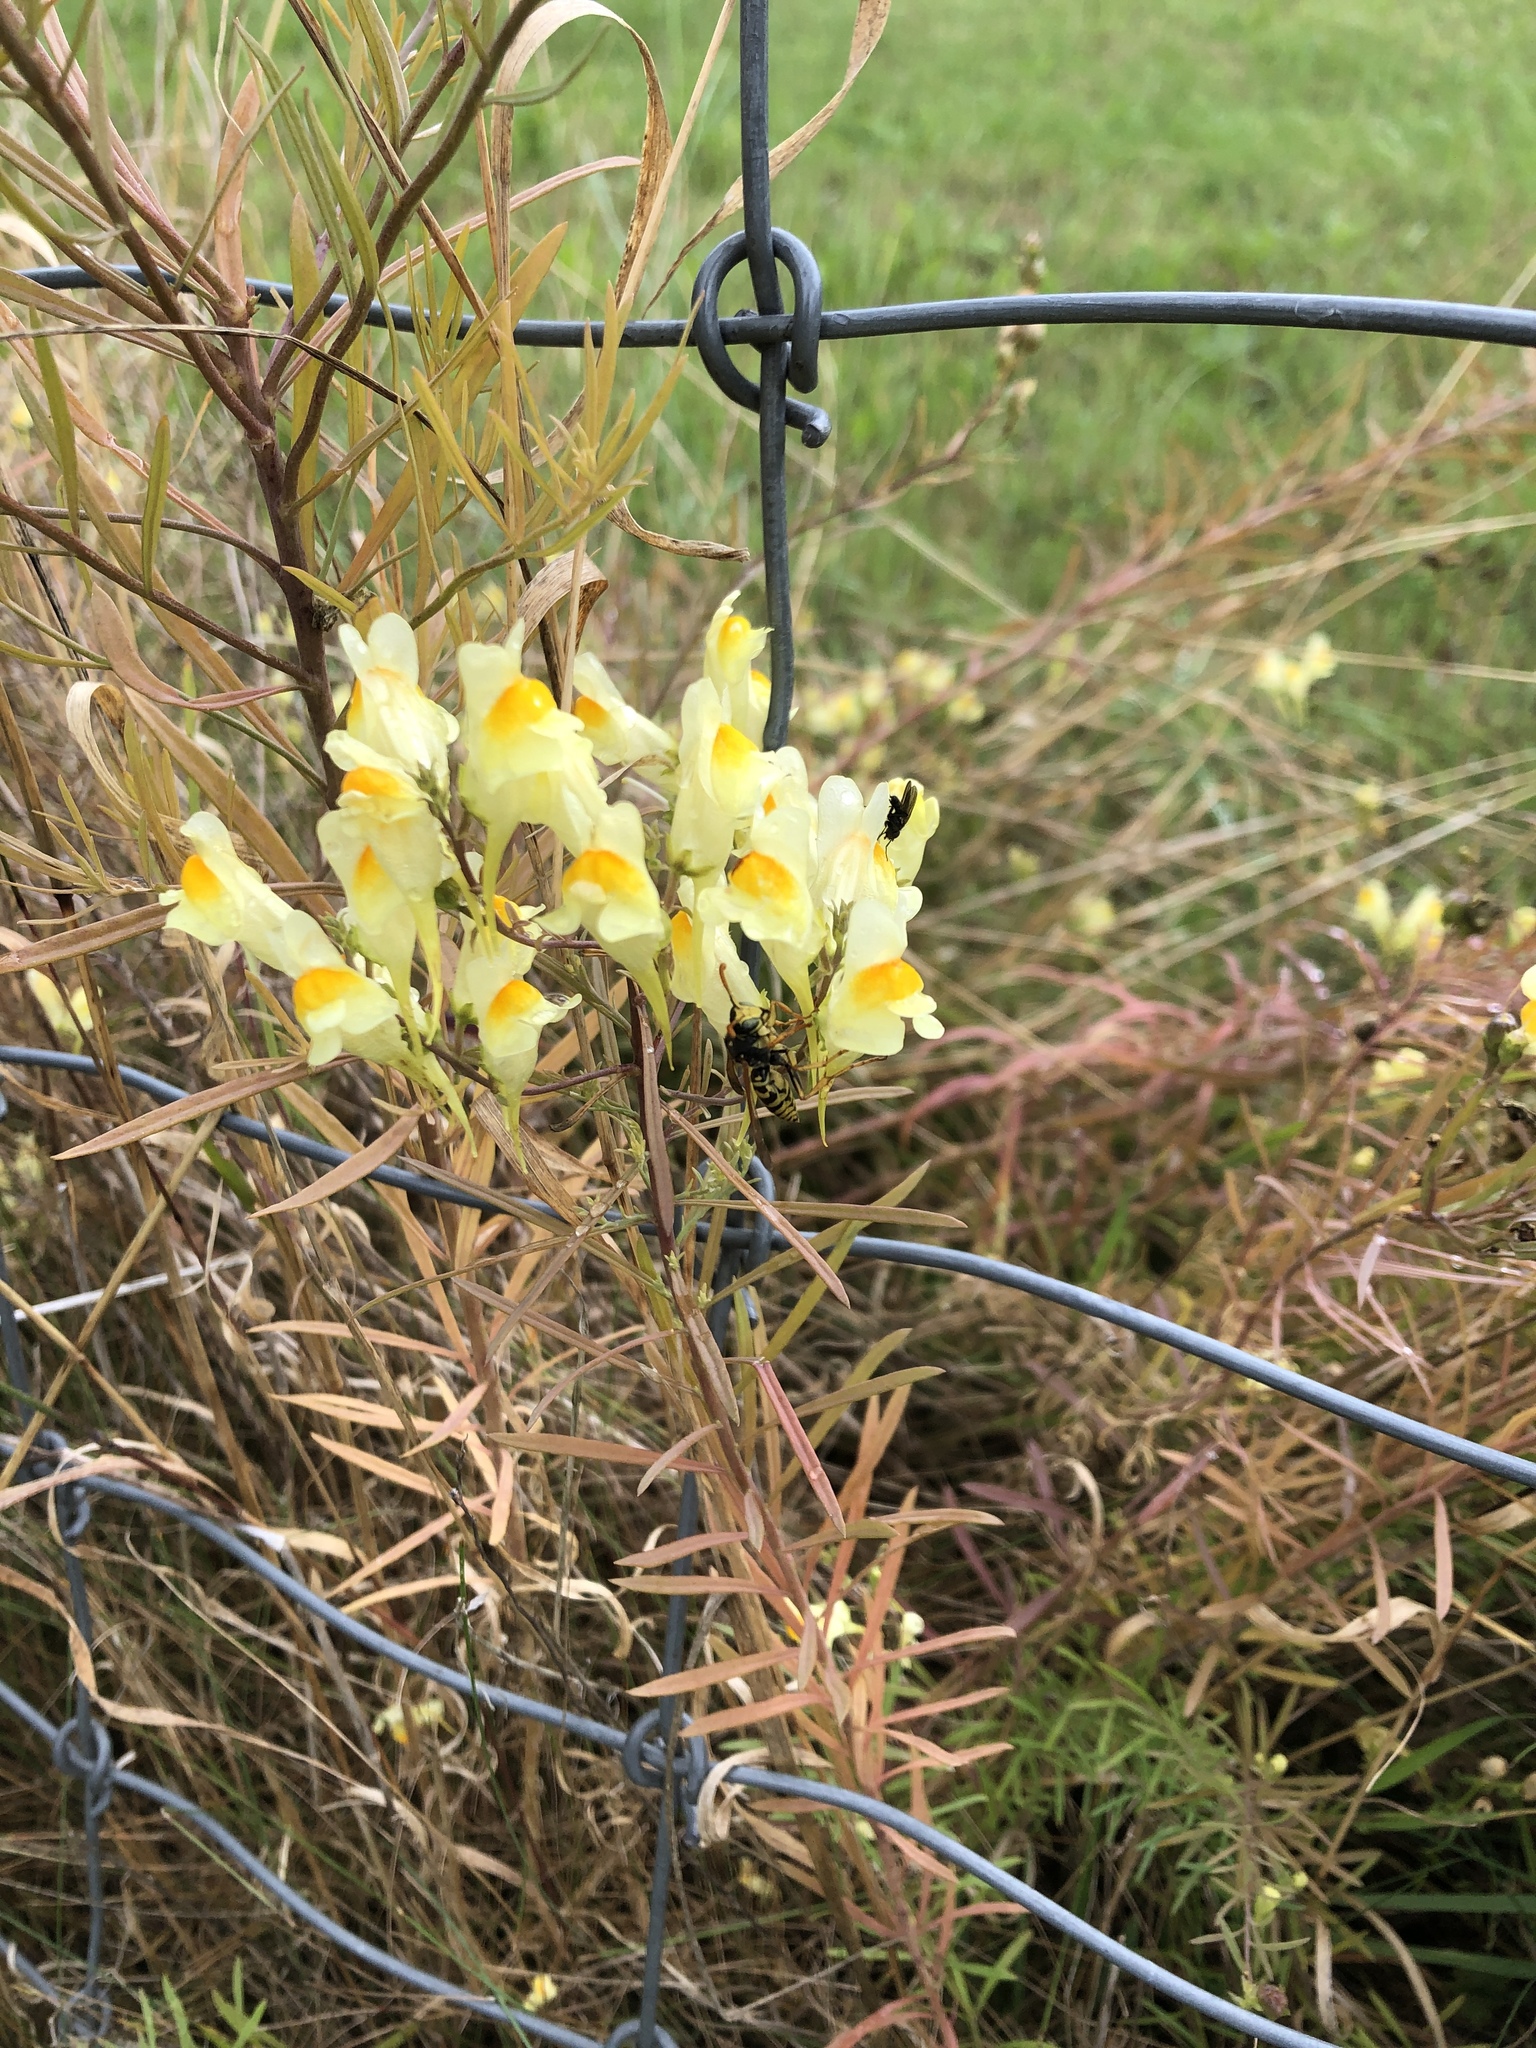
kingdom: Plantae
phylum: Tracheophyta
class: Magnoliopsida
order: Lamiales
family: Plantaginaceae
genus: Linaria
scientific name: Linaria vulgaris
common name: Butter and eggs
